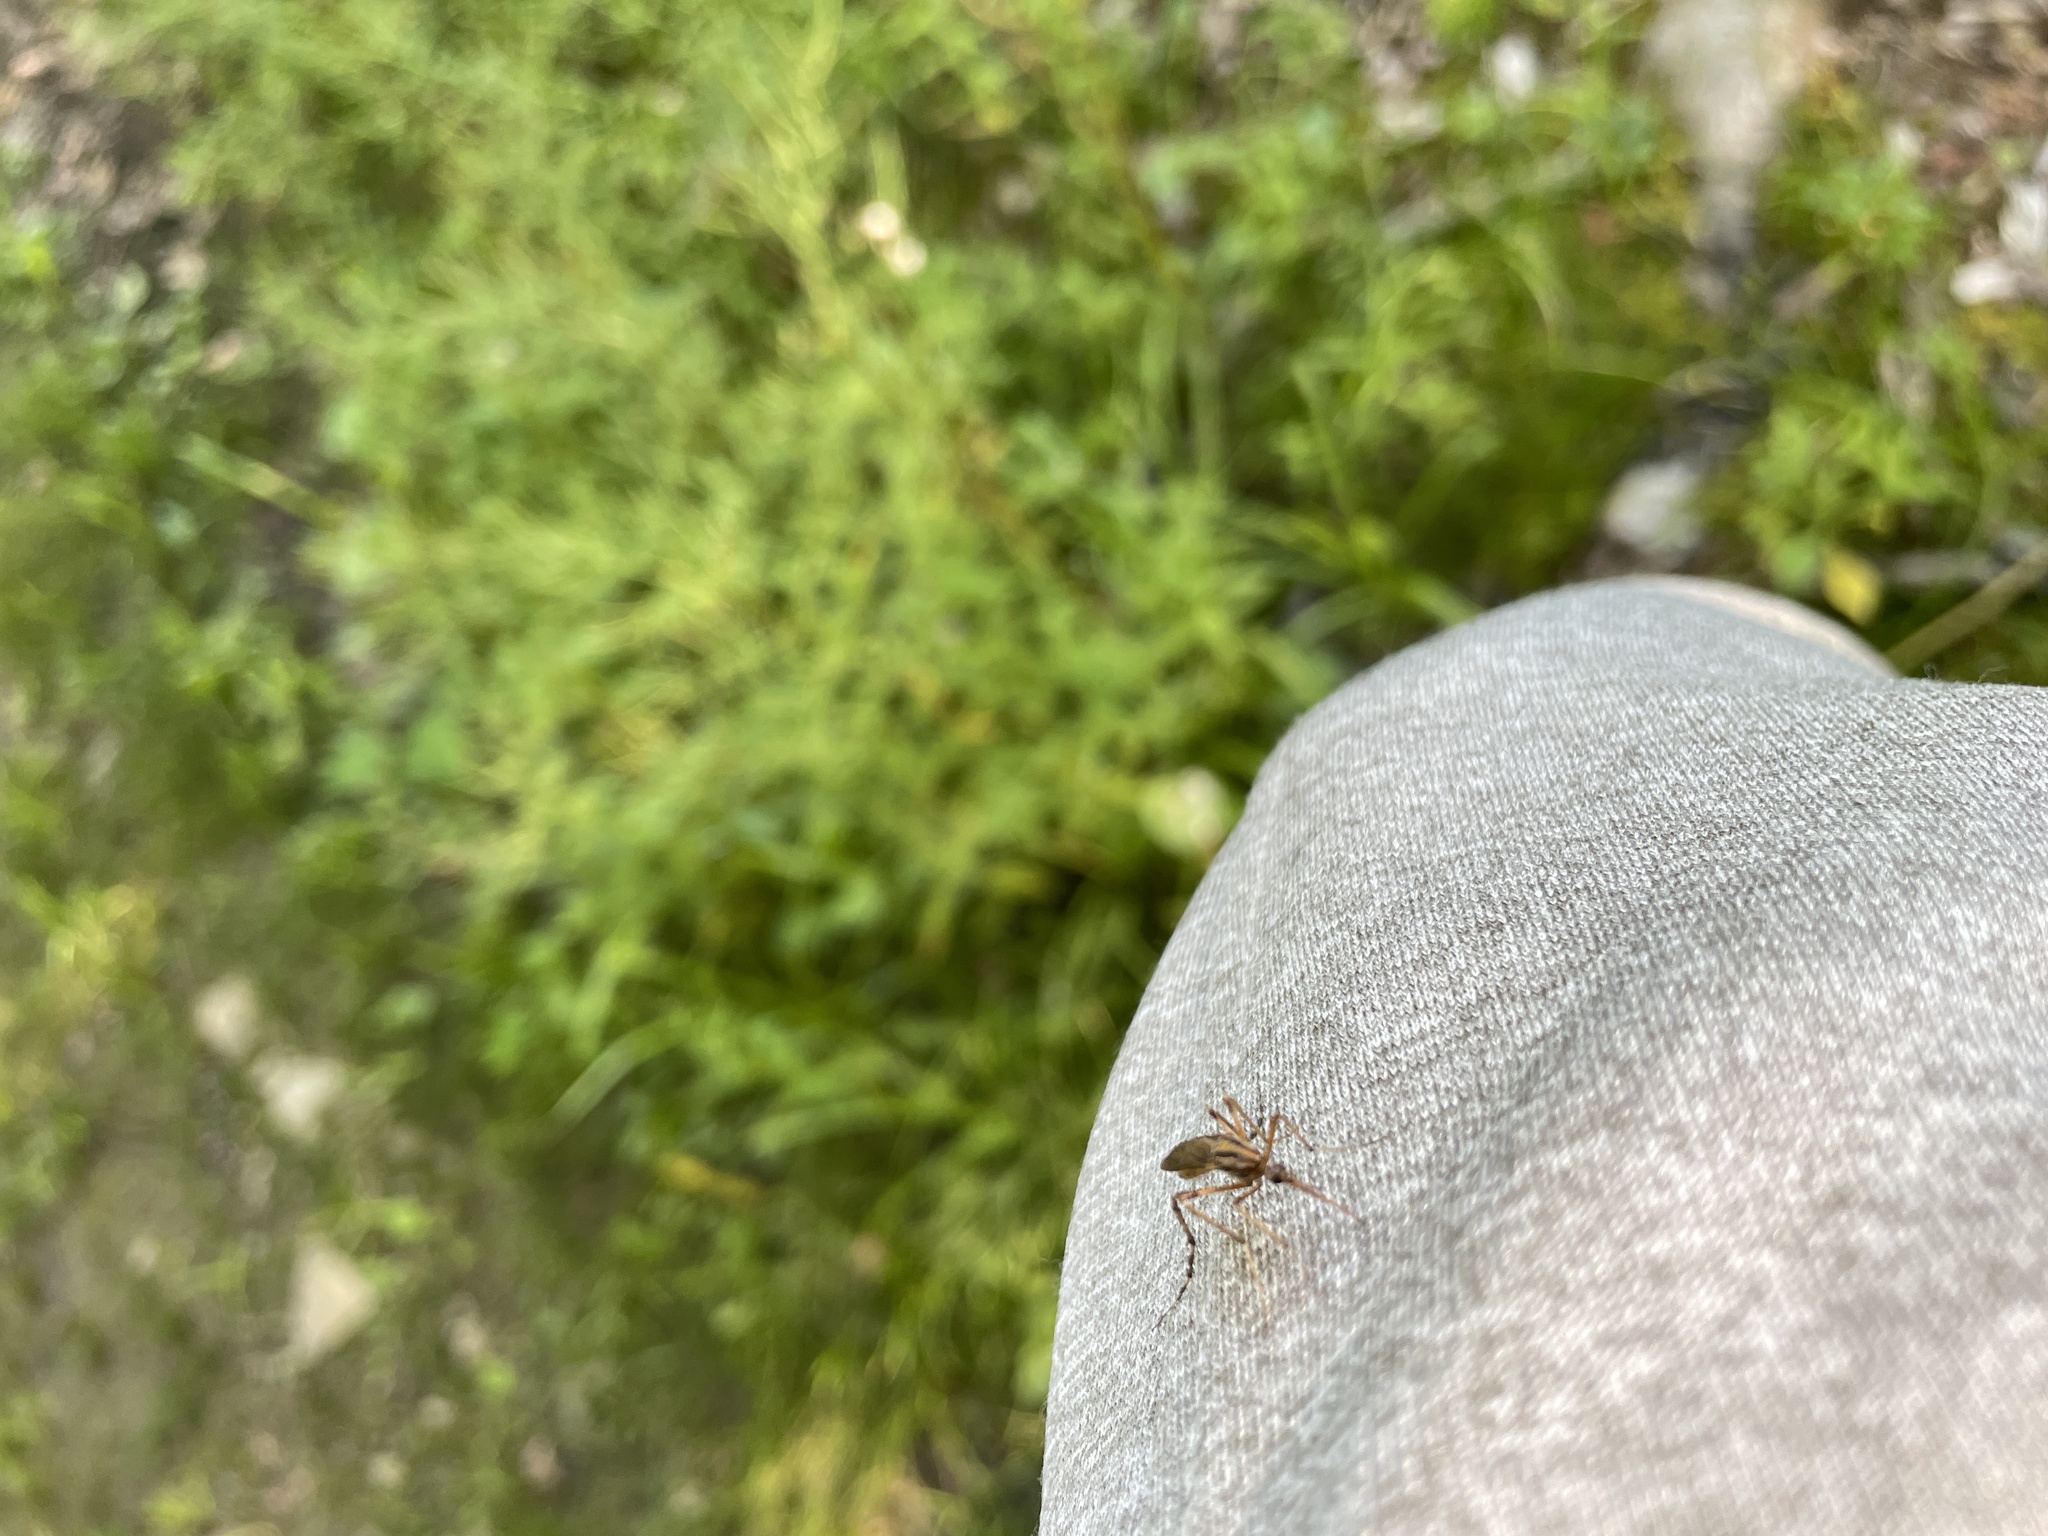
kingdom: Animalia
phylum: Arthropoda
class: Insecta
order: Diptera
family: Culicidae
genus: Psorophora
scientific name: Psorophora ciliata
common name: Gallinipper
